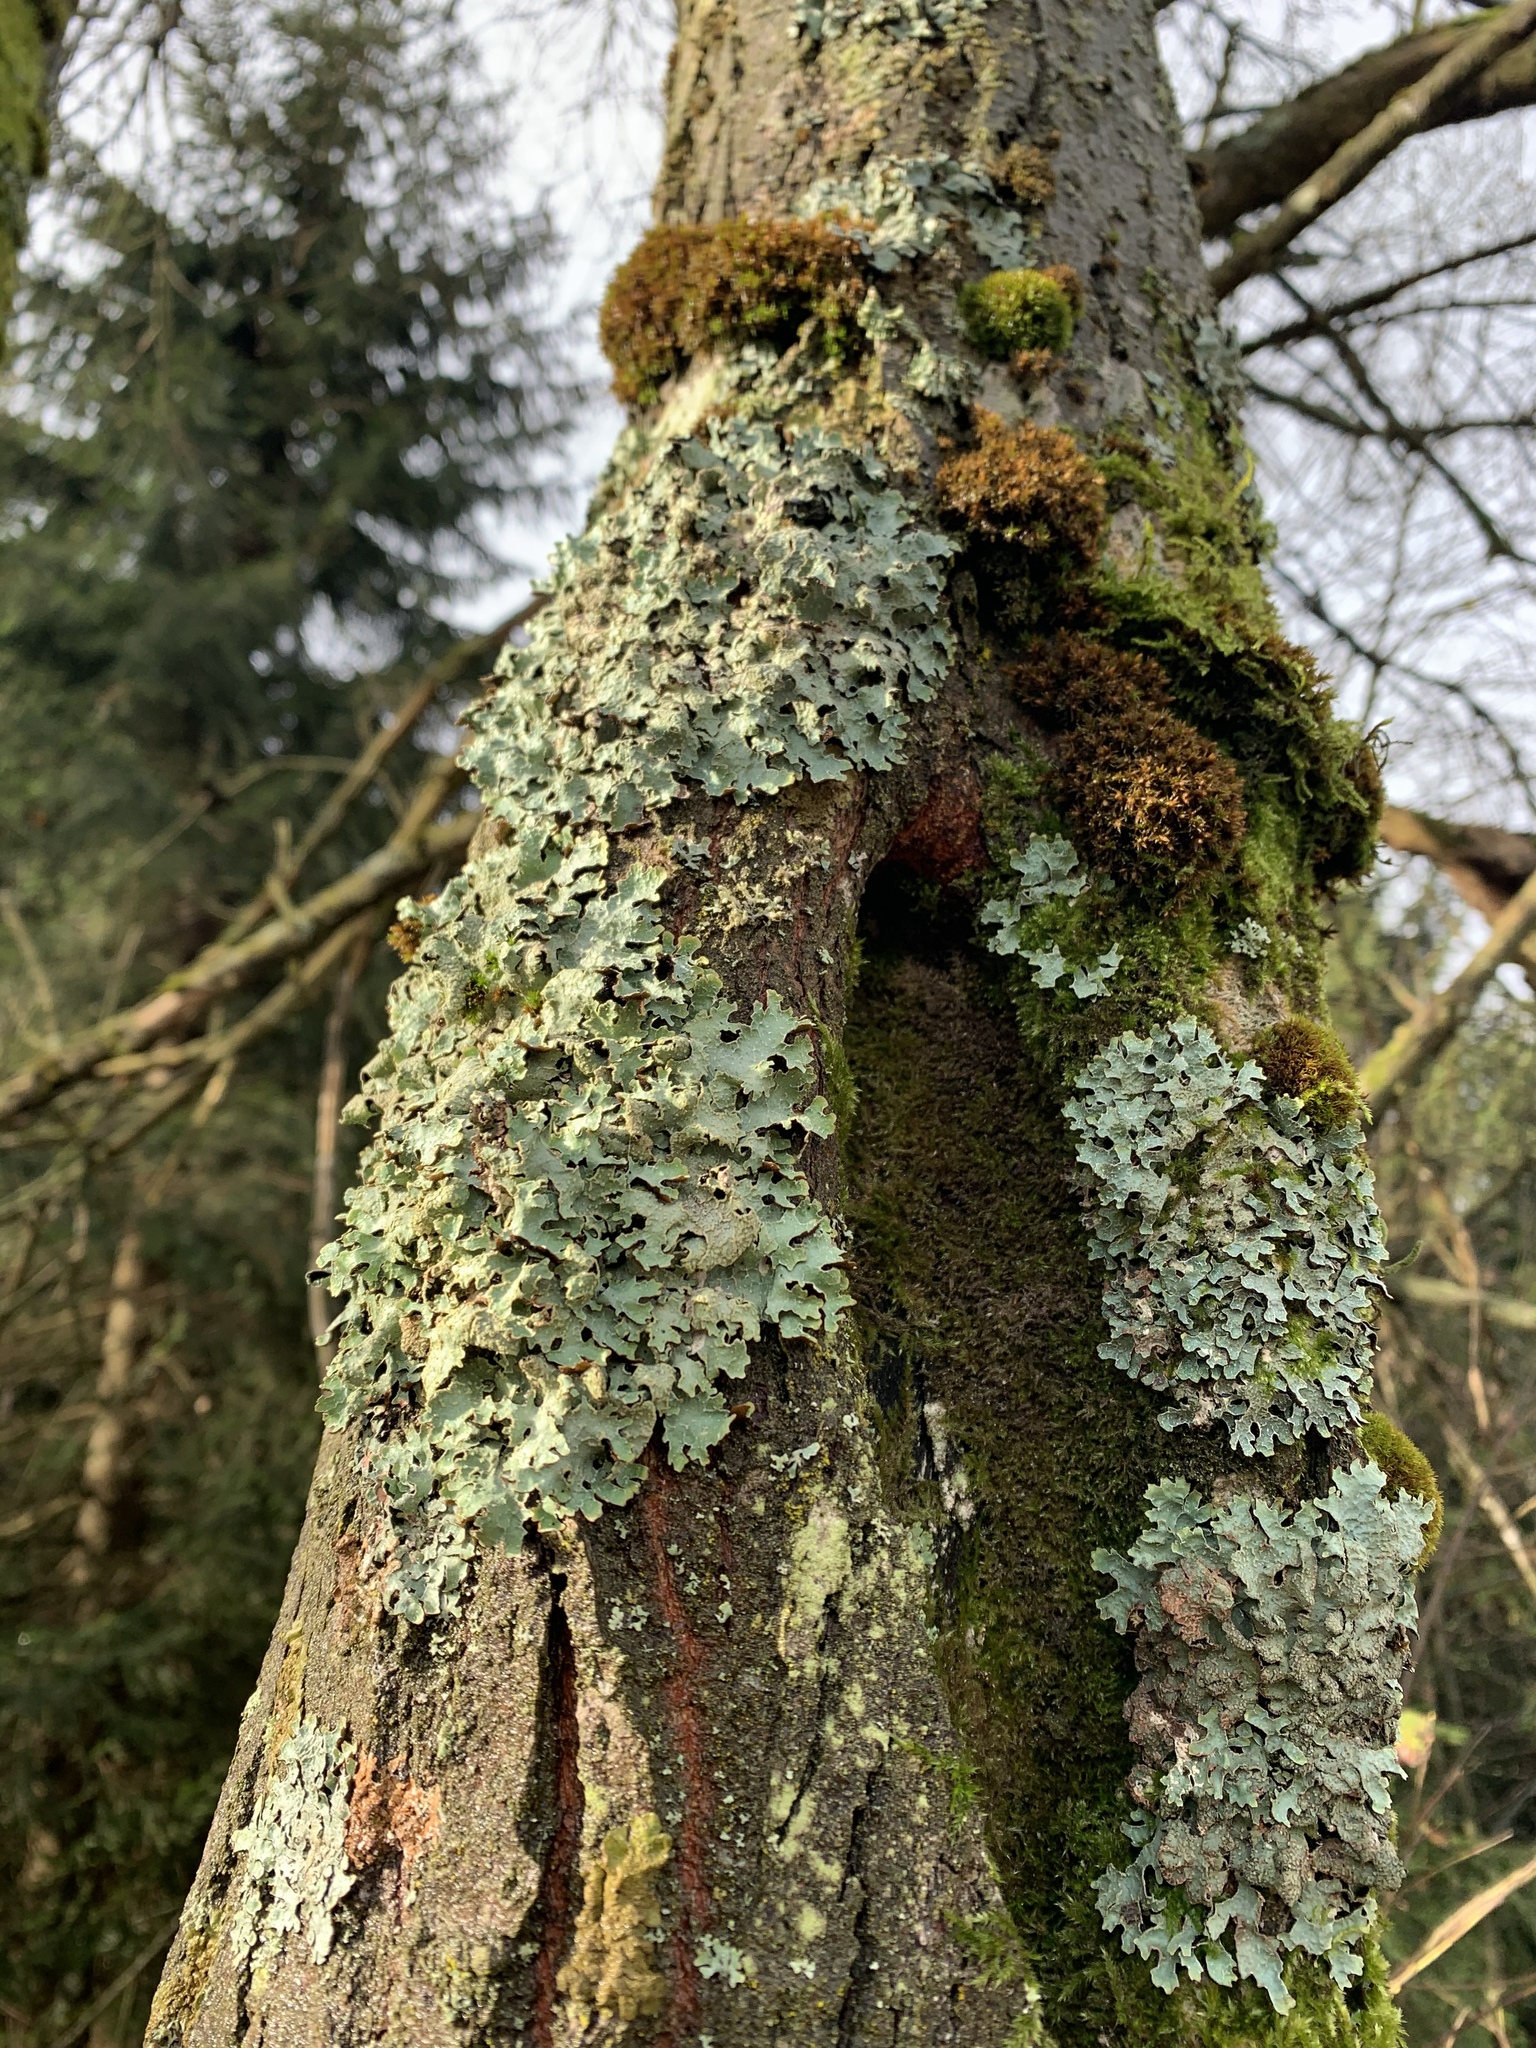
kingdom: Fungi
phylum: Ascomycota
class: Lecanoromycetes
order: Lecanorales
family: Parmeliaceae
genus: Parmelia
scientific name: Parmelia sulcata
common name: Netted shield lichen
